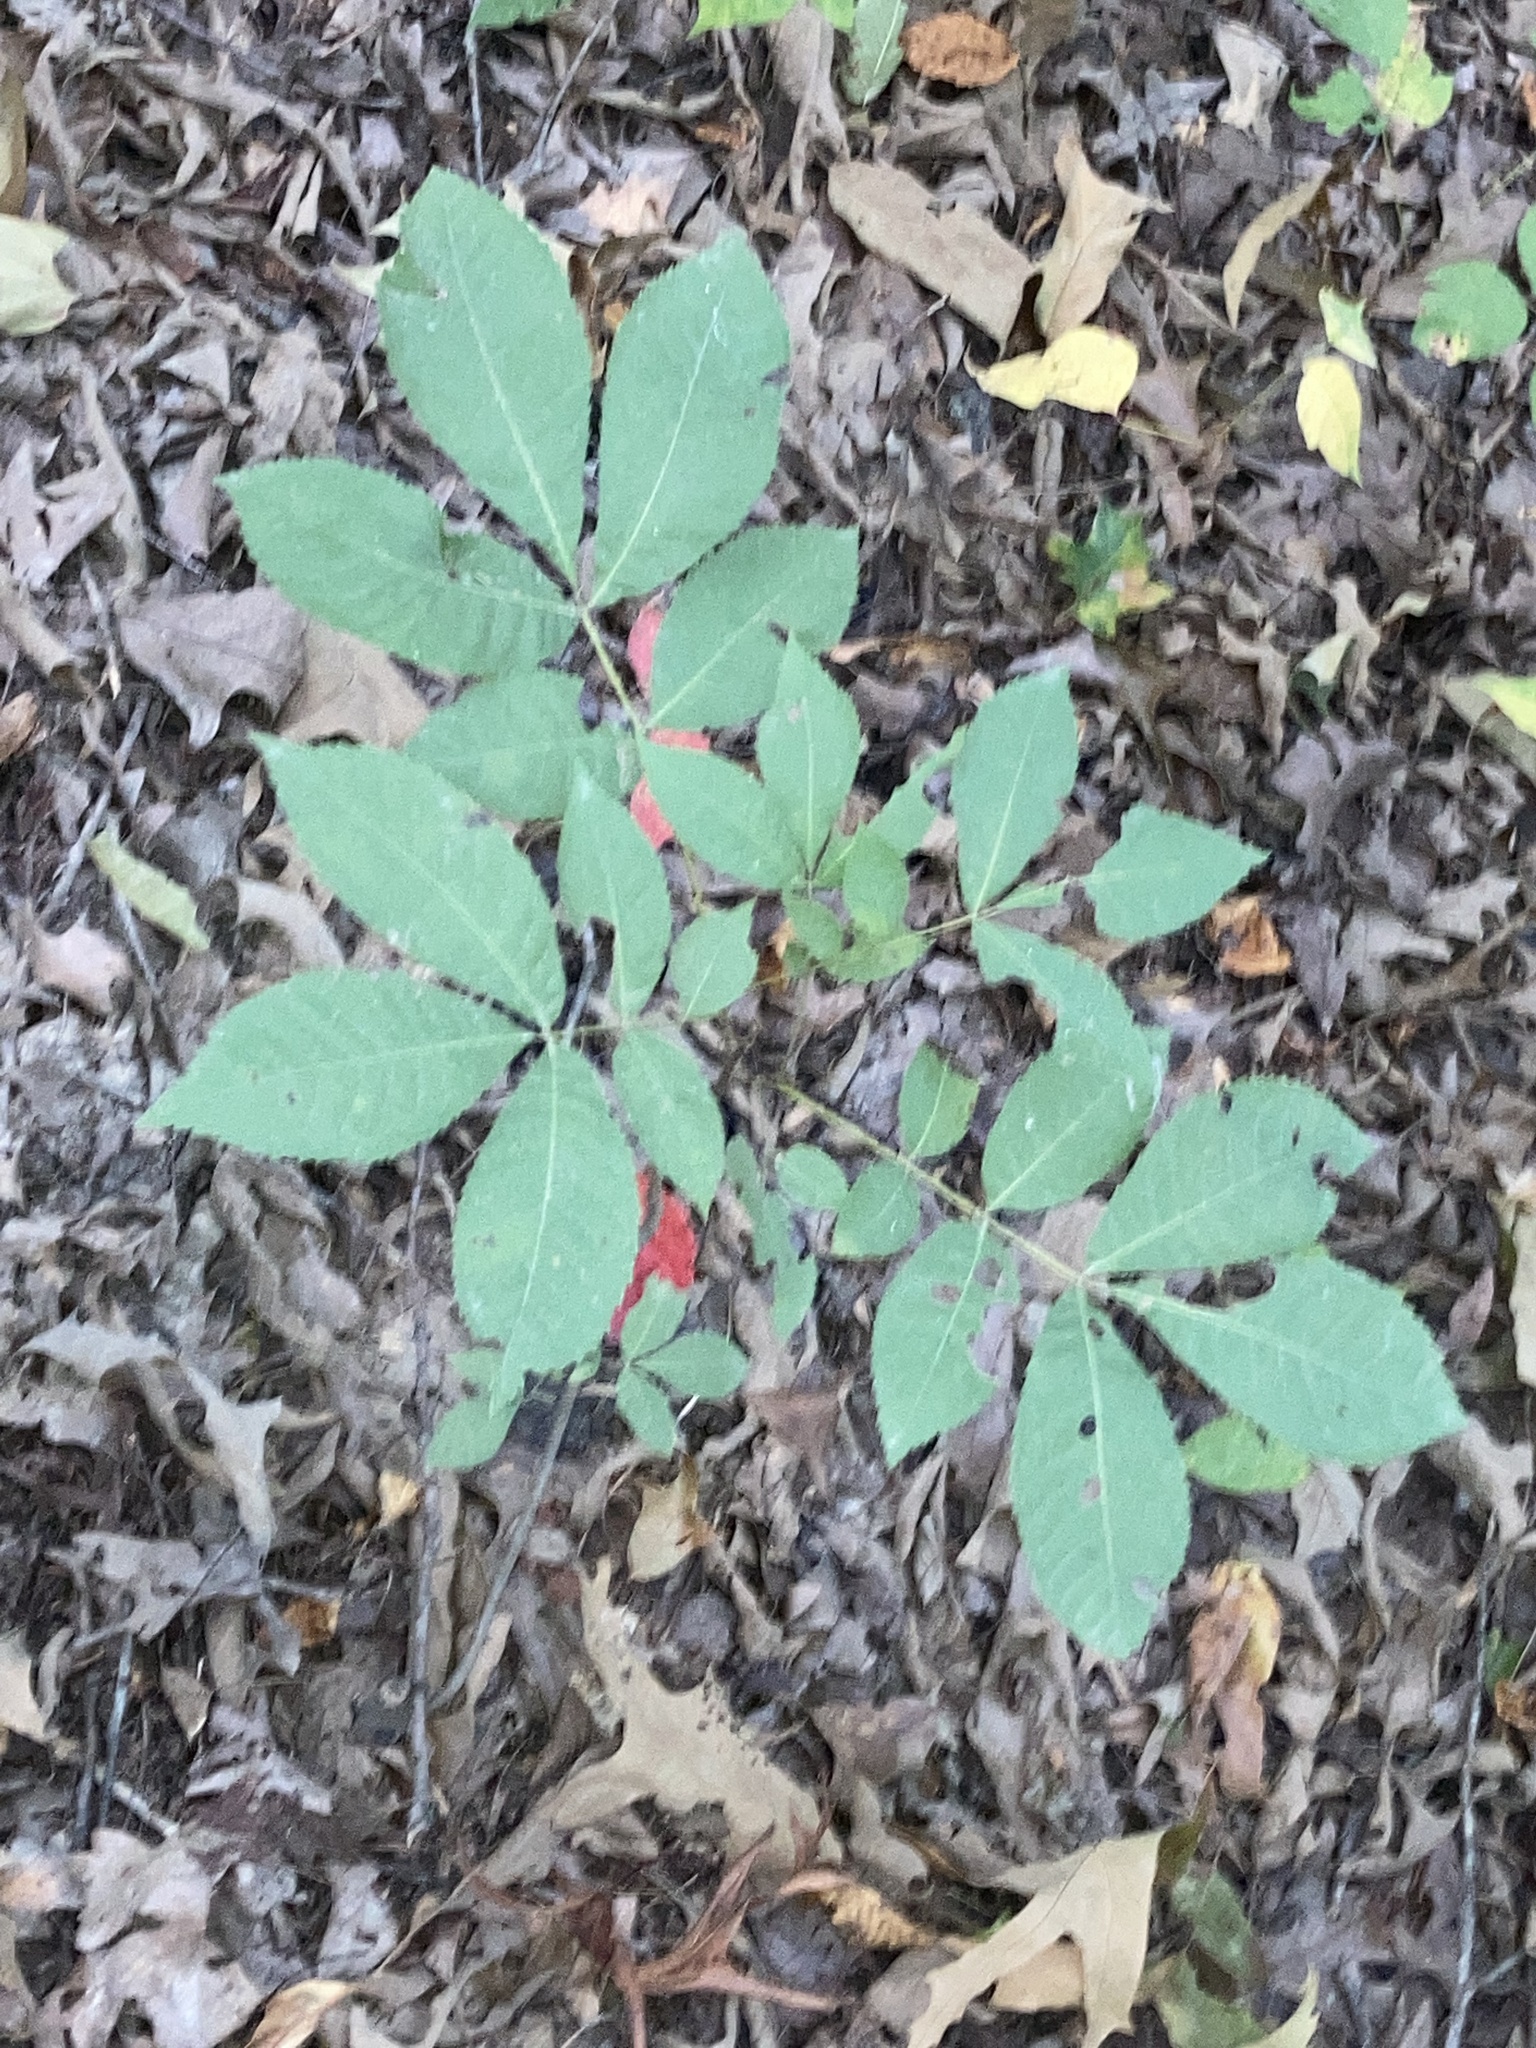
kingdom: Plantae
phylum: Tracheophyta
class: Magnoliopsida
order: Fagales
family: Juglandaceae
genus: Carya
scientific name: Carya texana
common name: Black hickory
